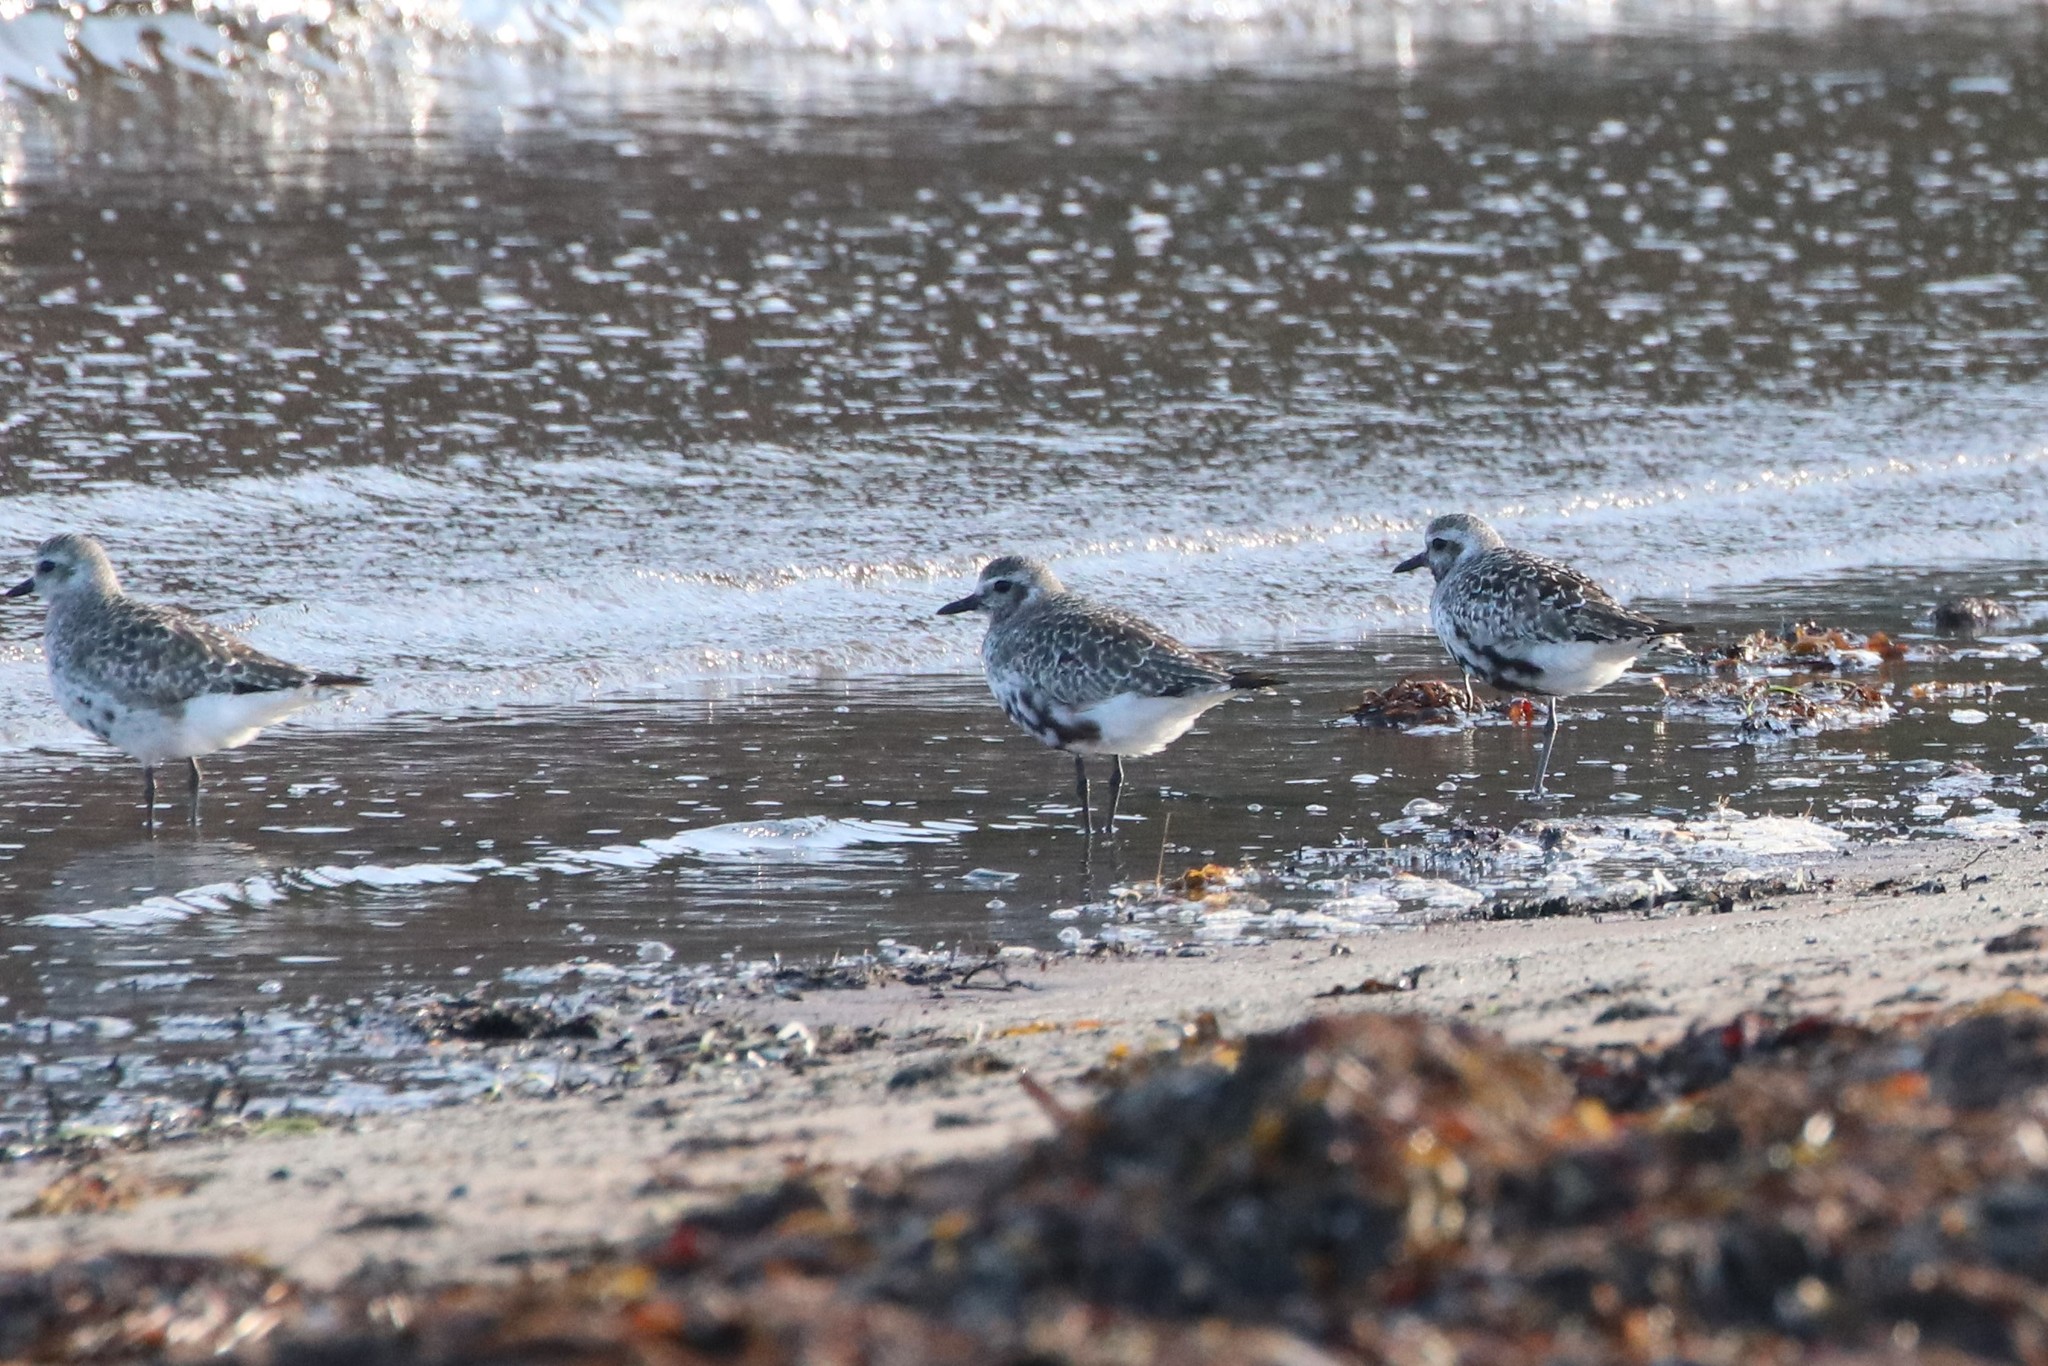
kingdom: Animalia
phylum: Chordata
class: Aves
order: Charadriiformes
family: Charadriidae
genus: Pluvialis
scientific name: Pluvialis squatarola
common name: Grey plover
